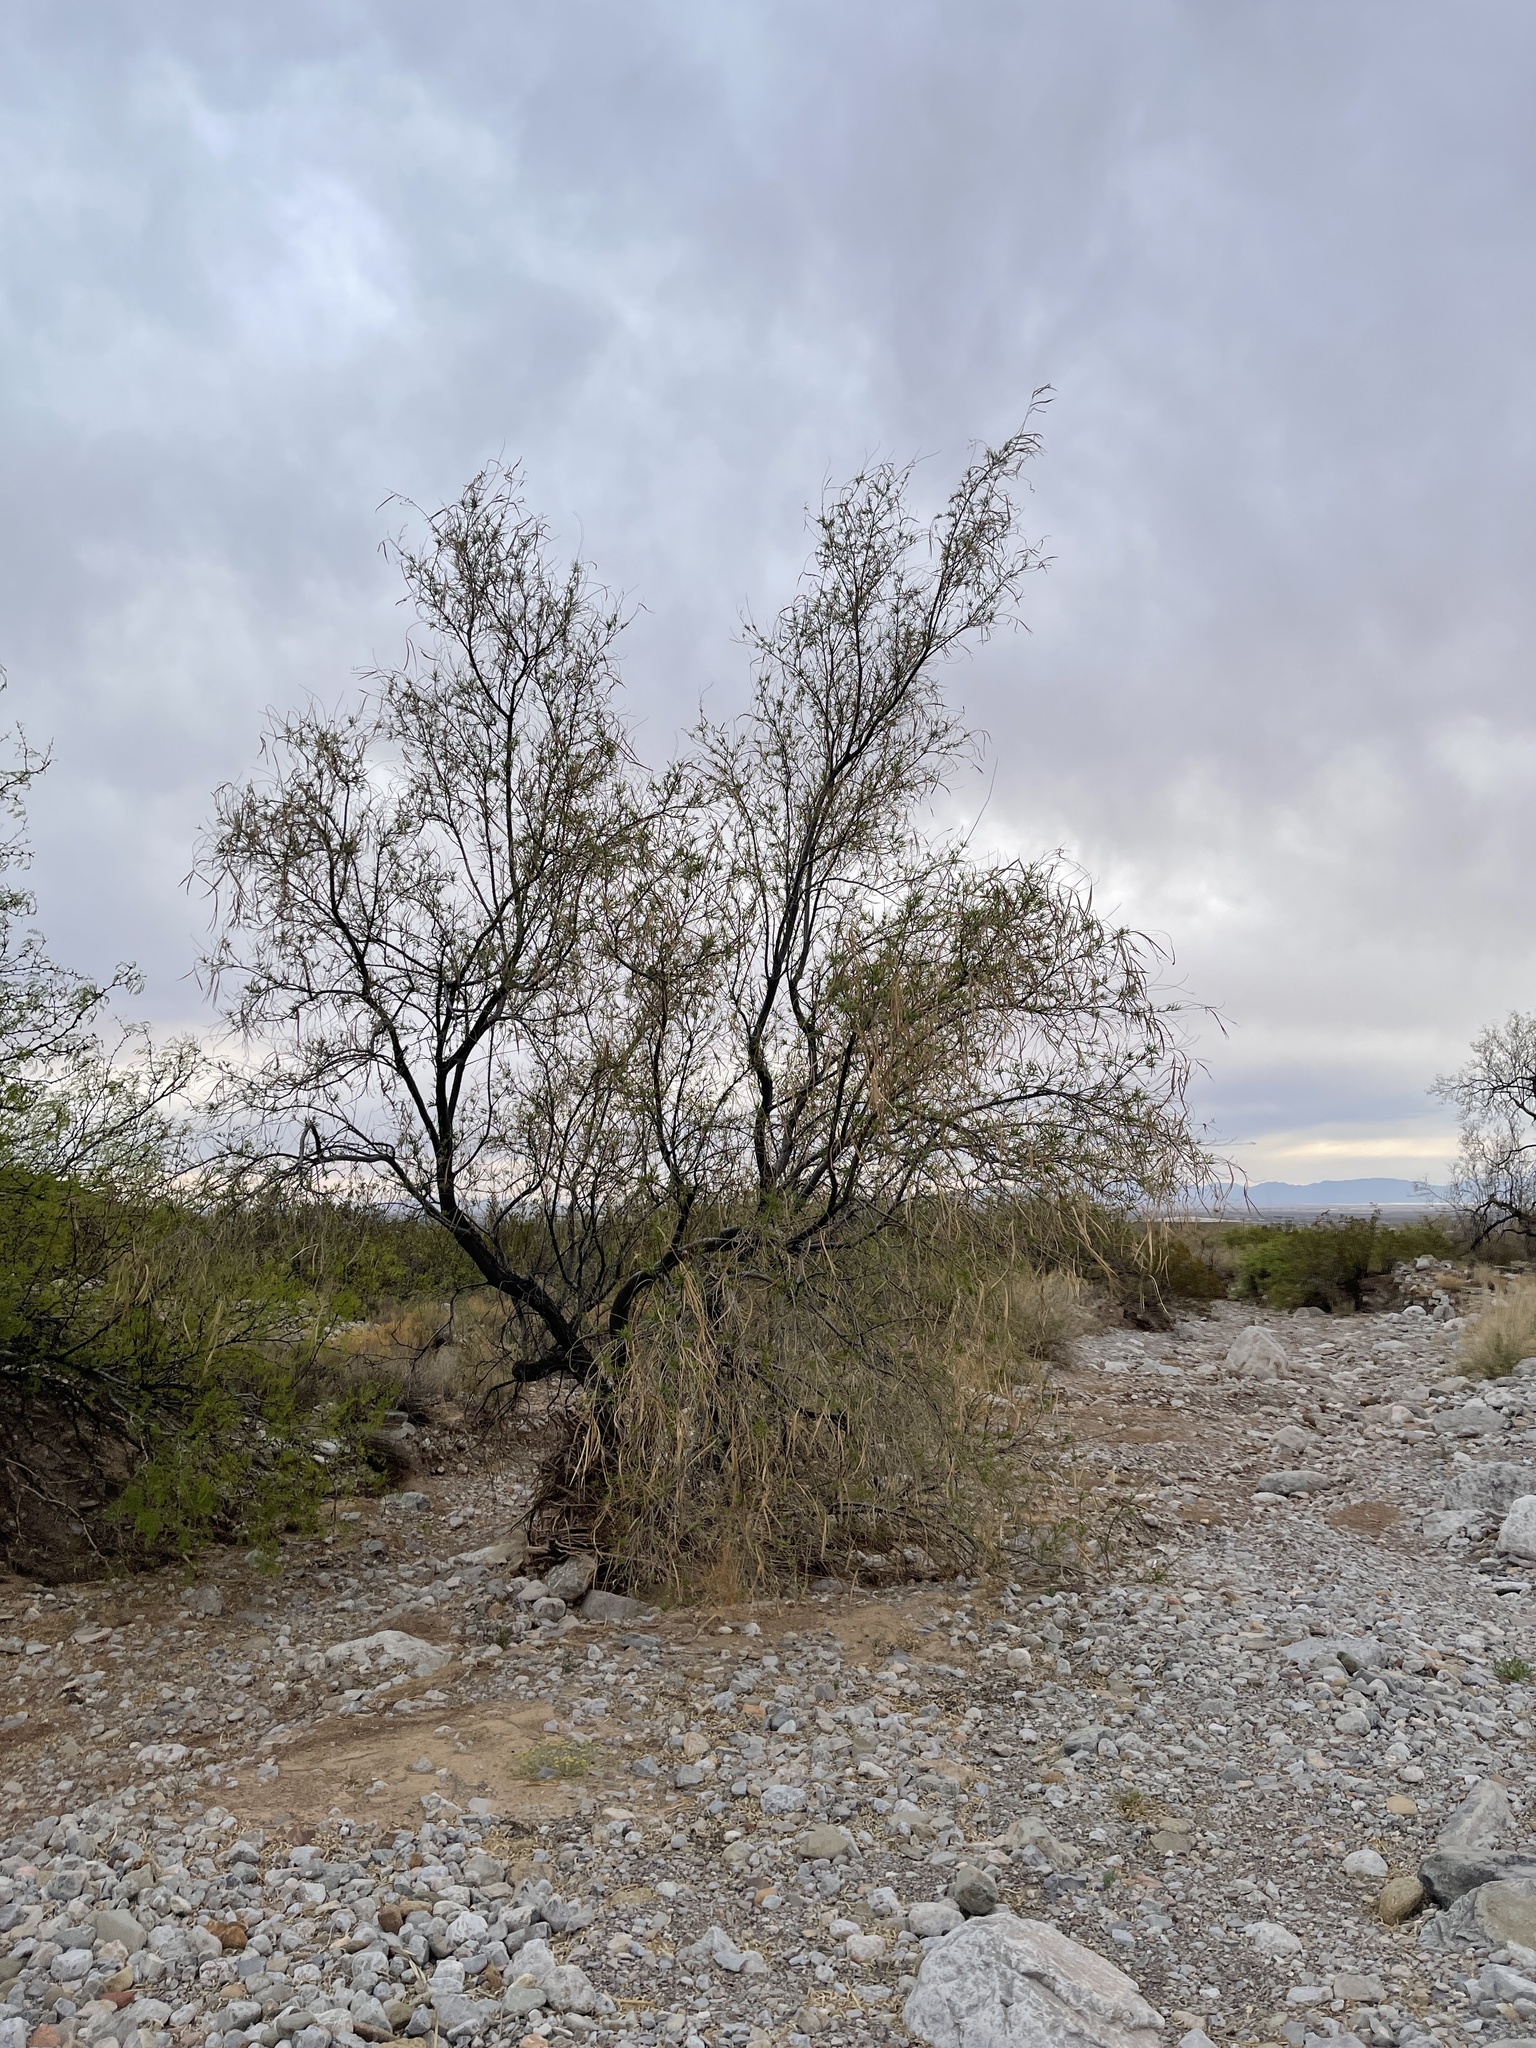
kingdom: Plantae
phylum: Tracheophyta
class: Magnoliopsida
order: Lamiales
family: Bignoniaceae
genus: Chilopsis
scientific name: Chilopsis linearis
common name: Desert-willow
